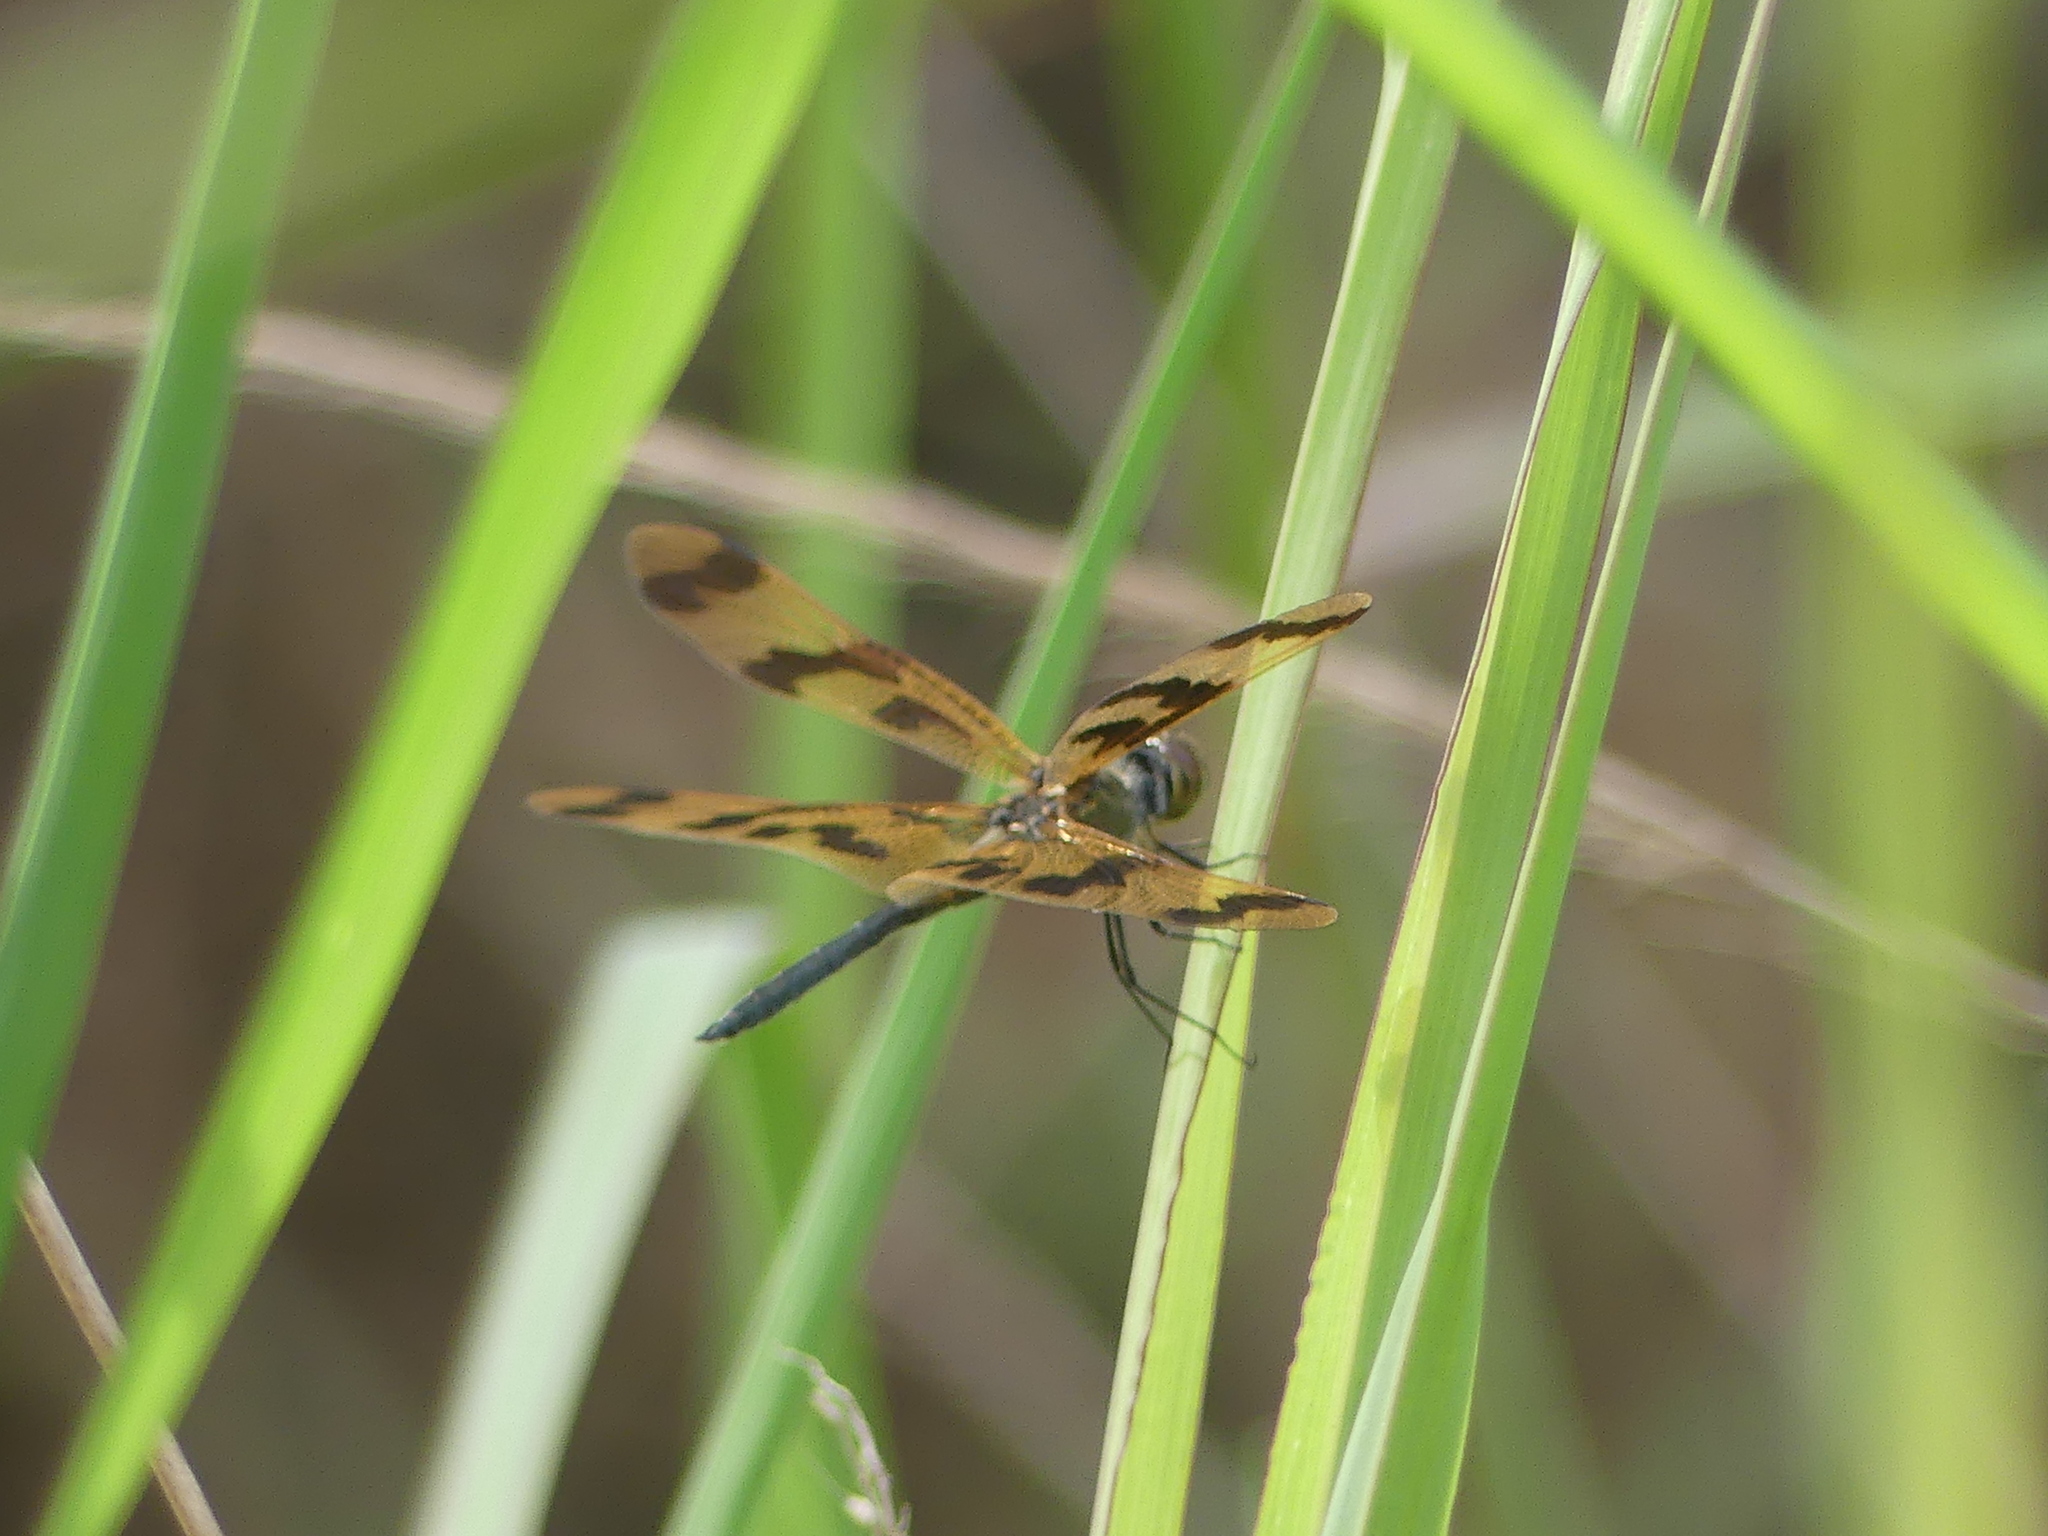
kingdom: Animalia
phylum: Arthropoda
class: Insecta
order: Odonata
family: Libellulidae
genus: Rhyothemis
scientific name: Rhyothemis graphiptera
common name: Graphic flutterer
